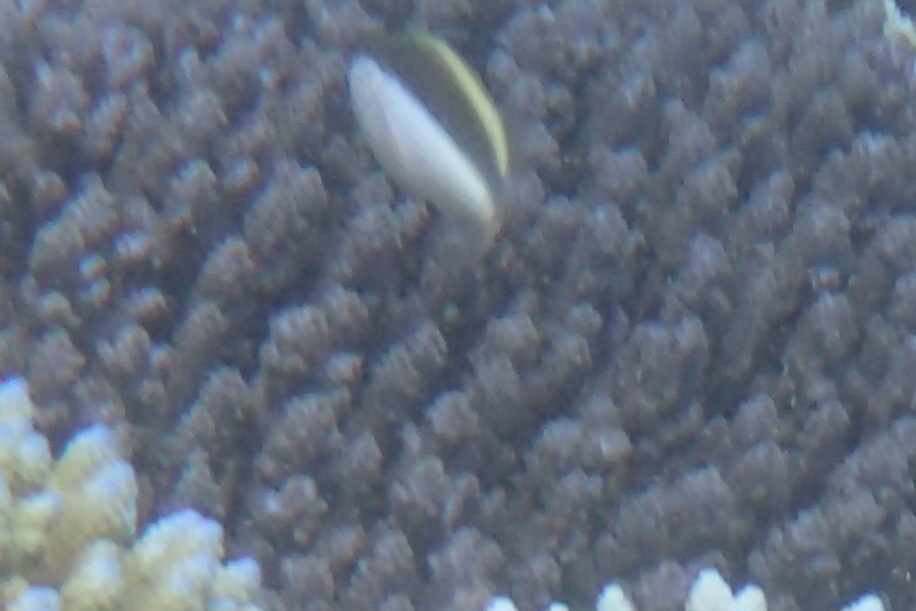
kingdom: Animalia
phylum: Chordata
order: Perciformes
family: Cirrhitidae
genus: Paracirrhites
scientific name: Paracirrhites forsteri
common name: Freckled hawkfish
